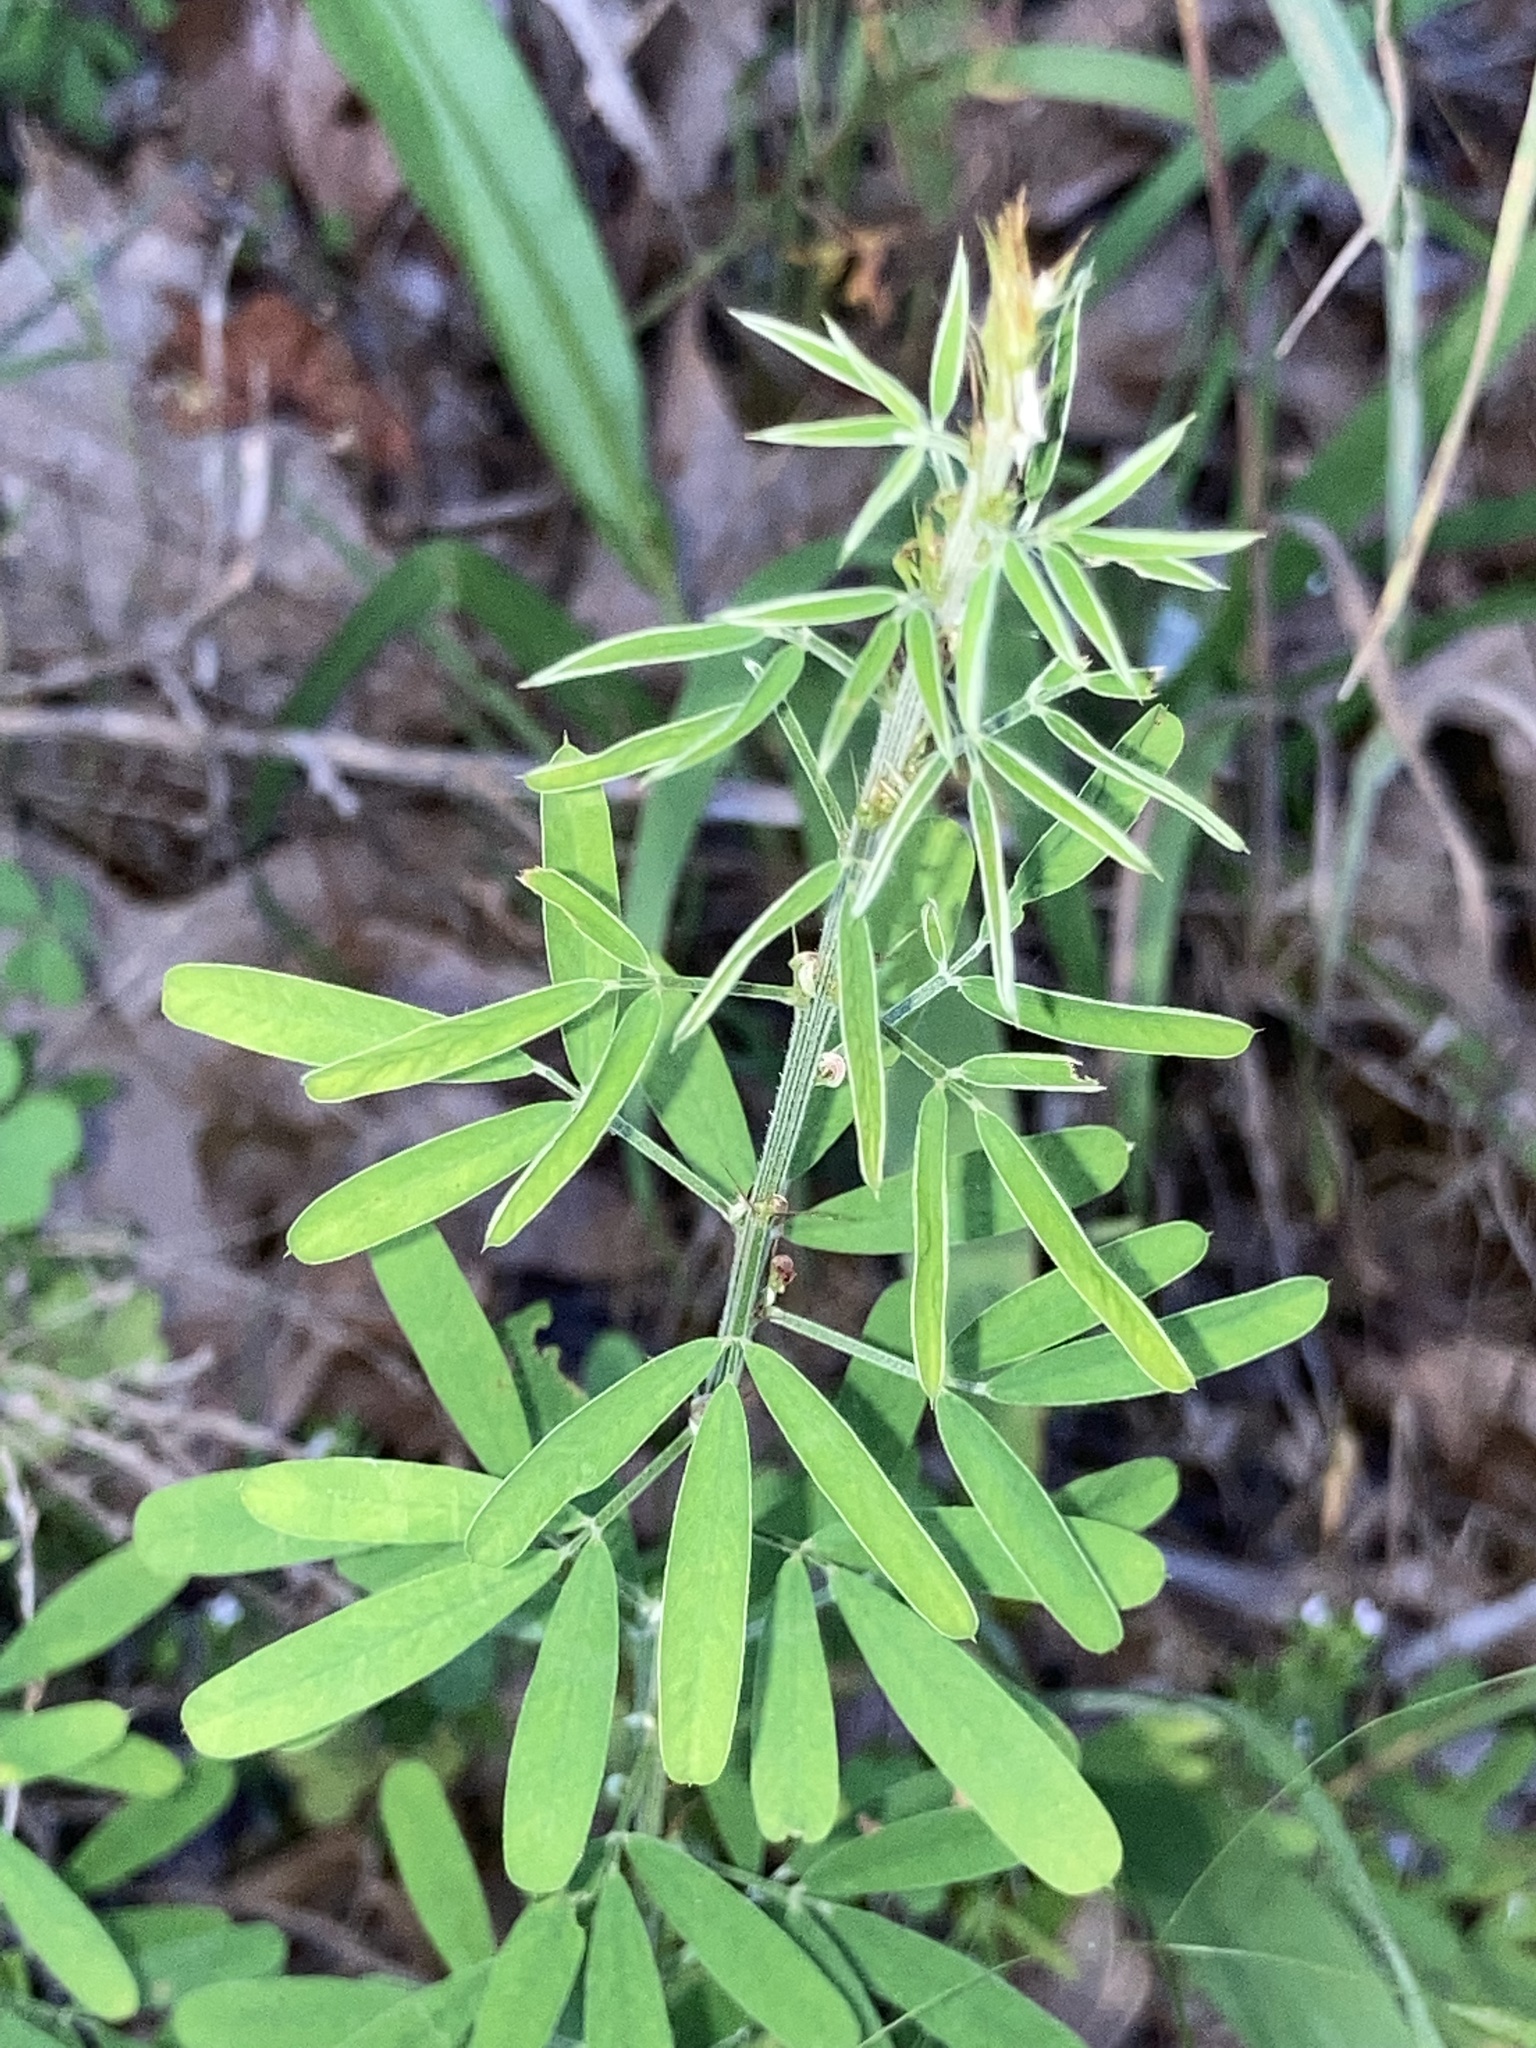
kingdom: Plantae
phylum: Tracheophyta
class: Magnoliopsida
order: Fabales
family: Fabaceae
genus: Lespedeza
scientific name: Lespedeza cuneata
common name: Chinese bush-clover
